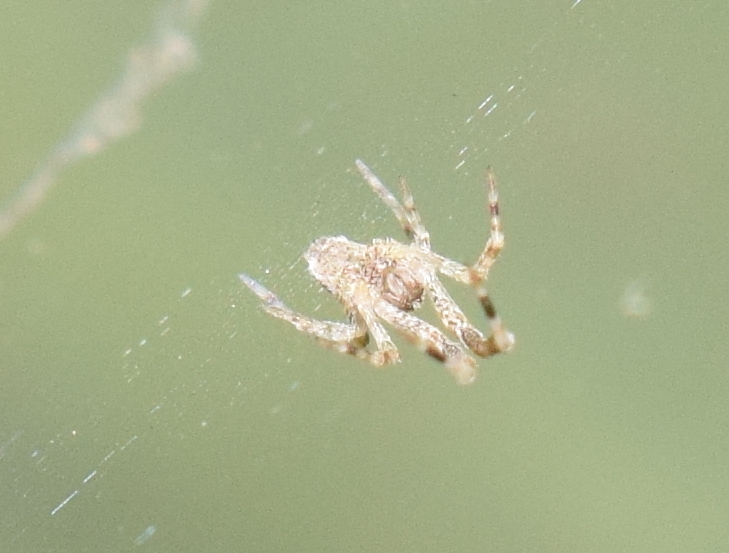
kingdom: Animalia
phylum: Arthropoda
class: Arachnida
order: Araneae
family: Uloboridae
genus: Uloborus
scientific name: Uloborus diversus
